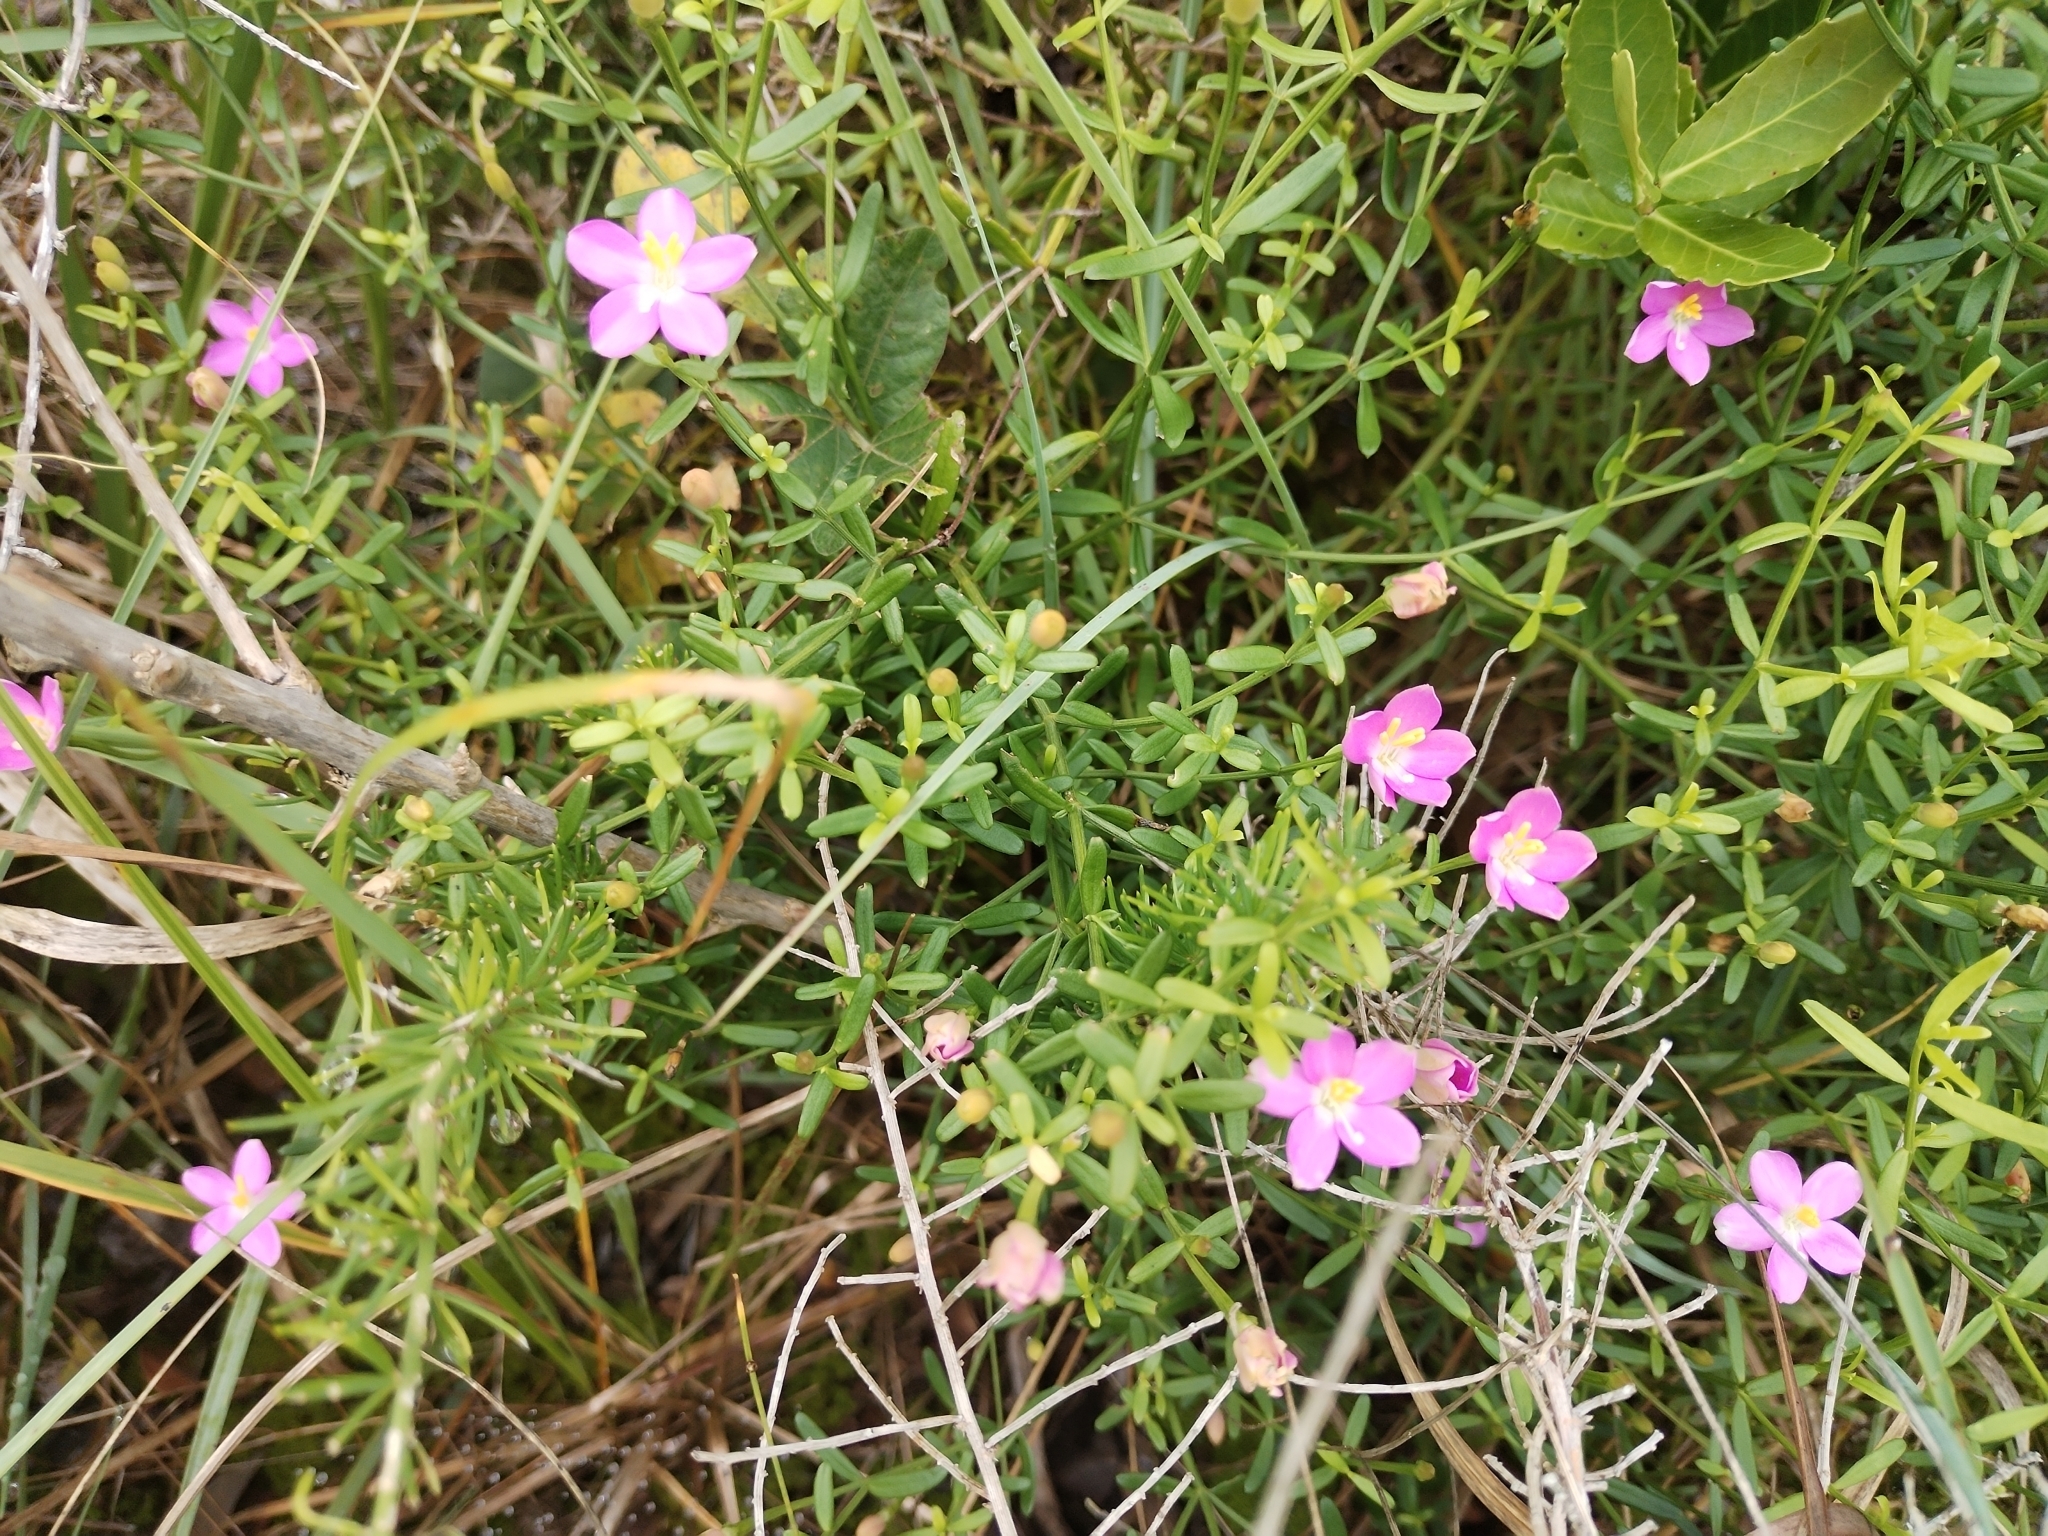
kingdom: Plantae
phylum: Tracheophyta
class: Magnoliopsida
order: Gentianales
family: Gentianaceae
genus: Chironia
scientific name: Chironia baccifera
